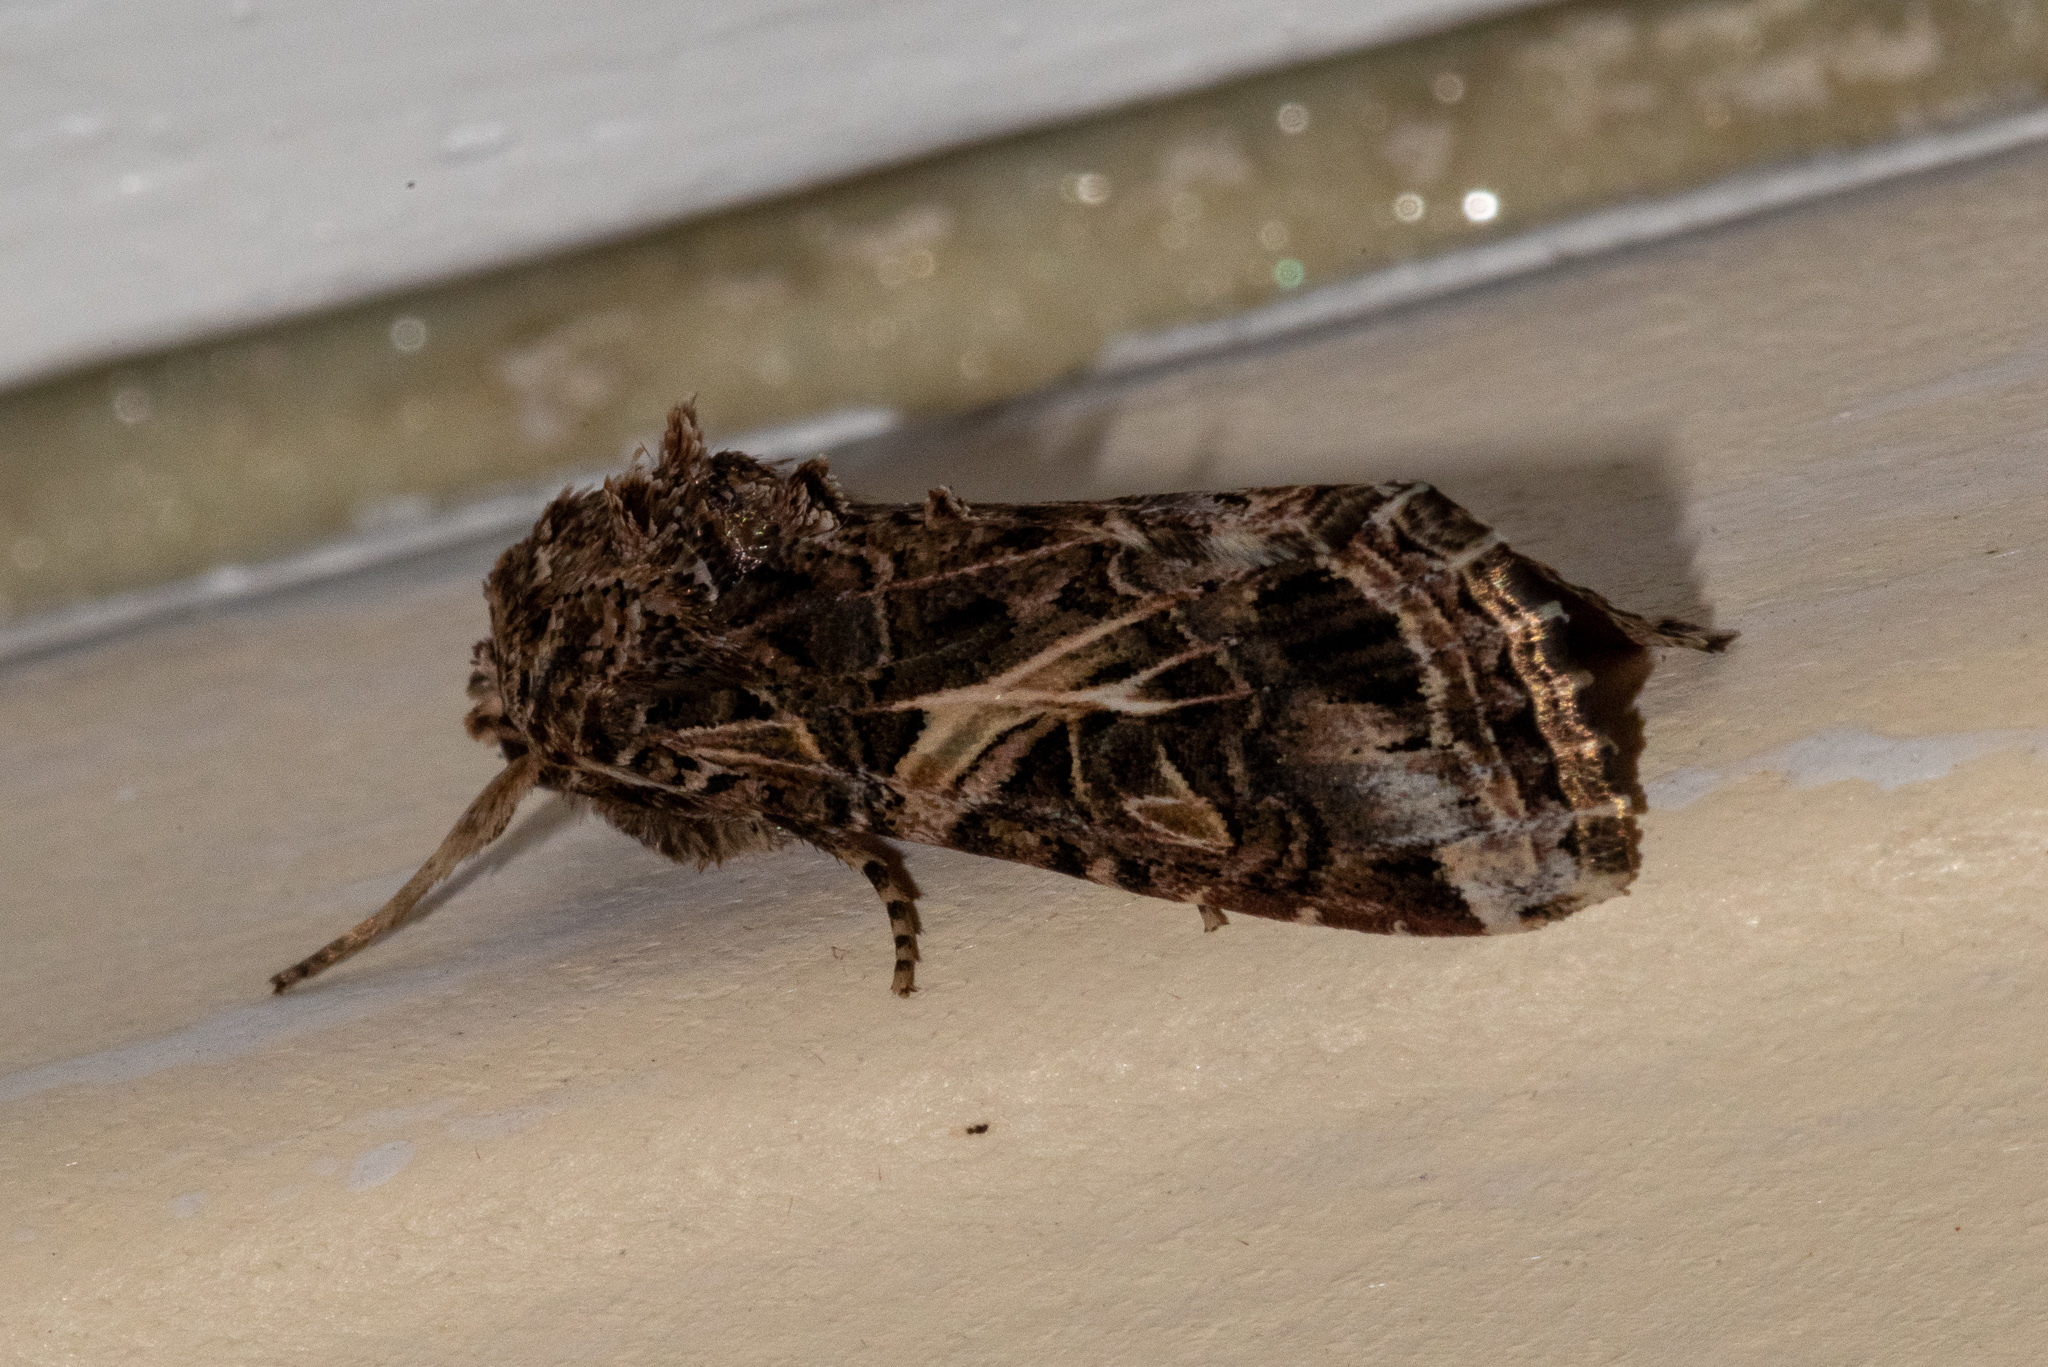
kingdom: Animalia
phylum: Arthropoda
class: Insecta
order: Lepidoptera
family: Noctuidae
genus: Spodoptera
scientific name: Spodoptera ornithogalli
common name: Yellow-striped armyworm
